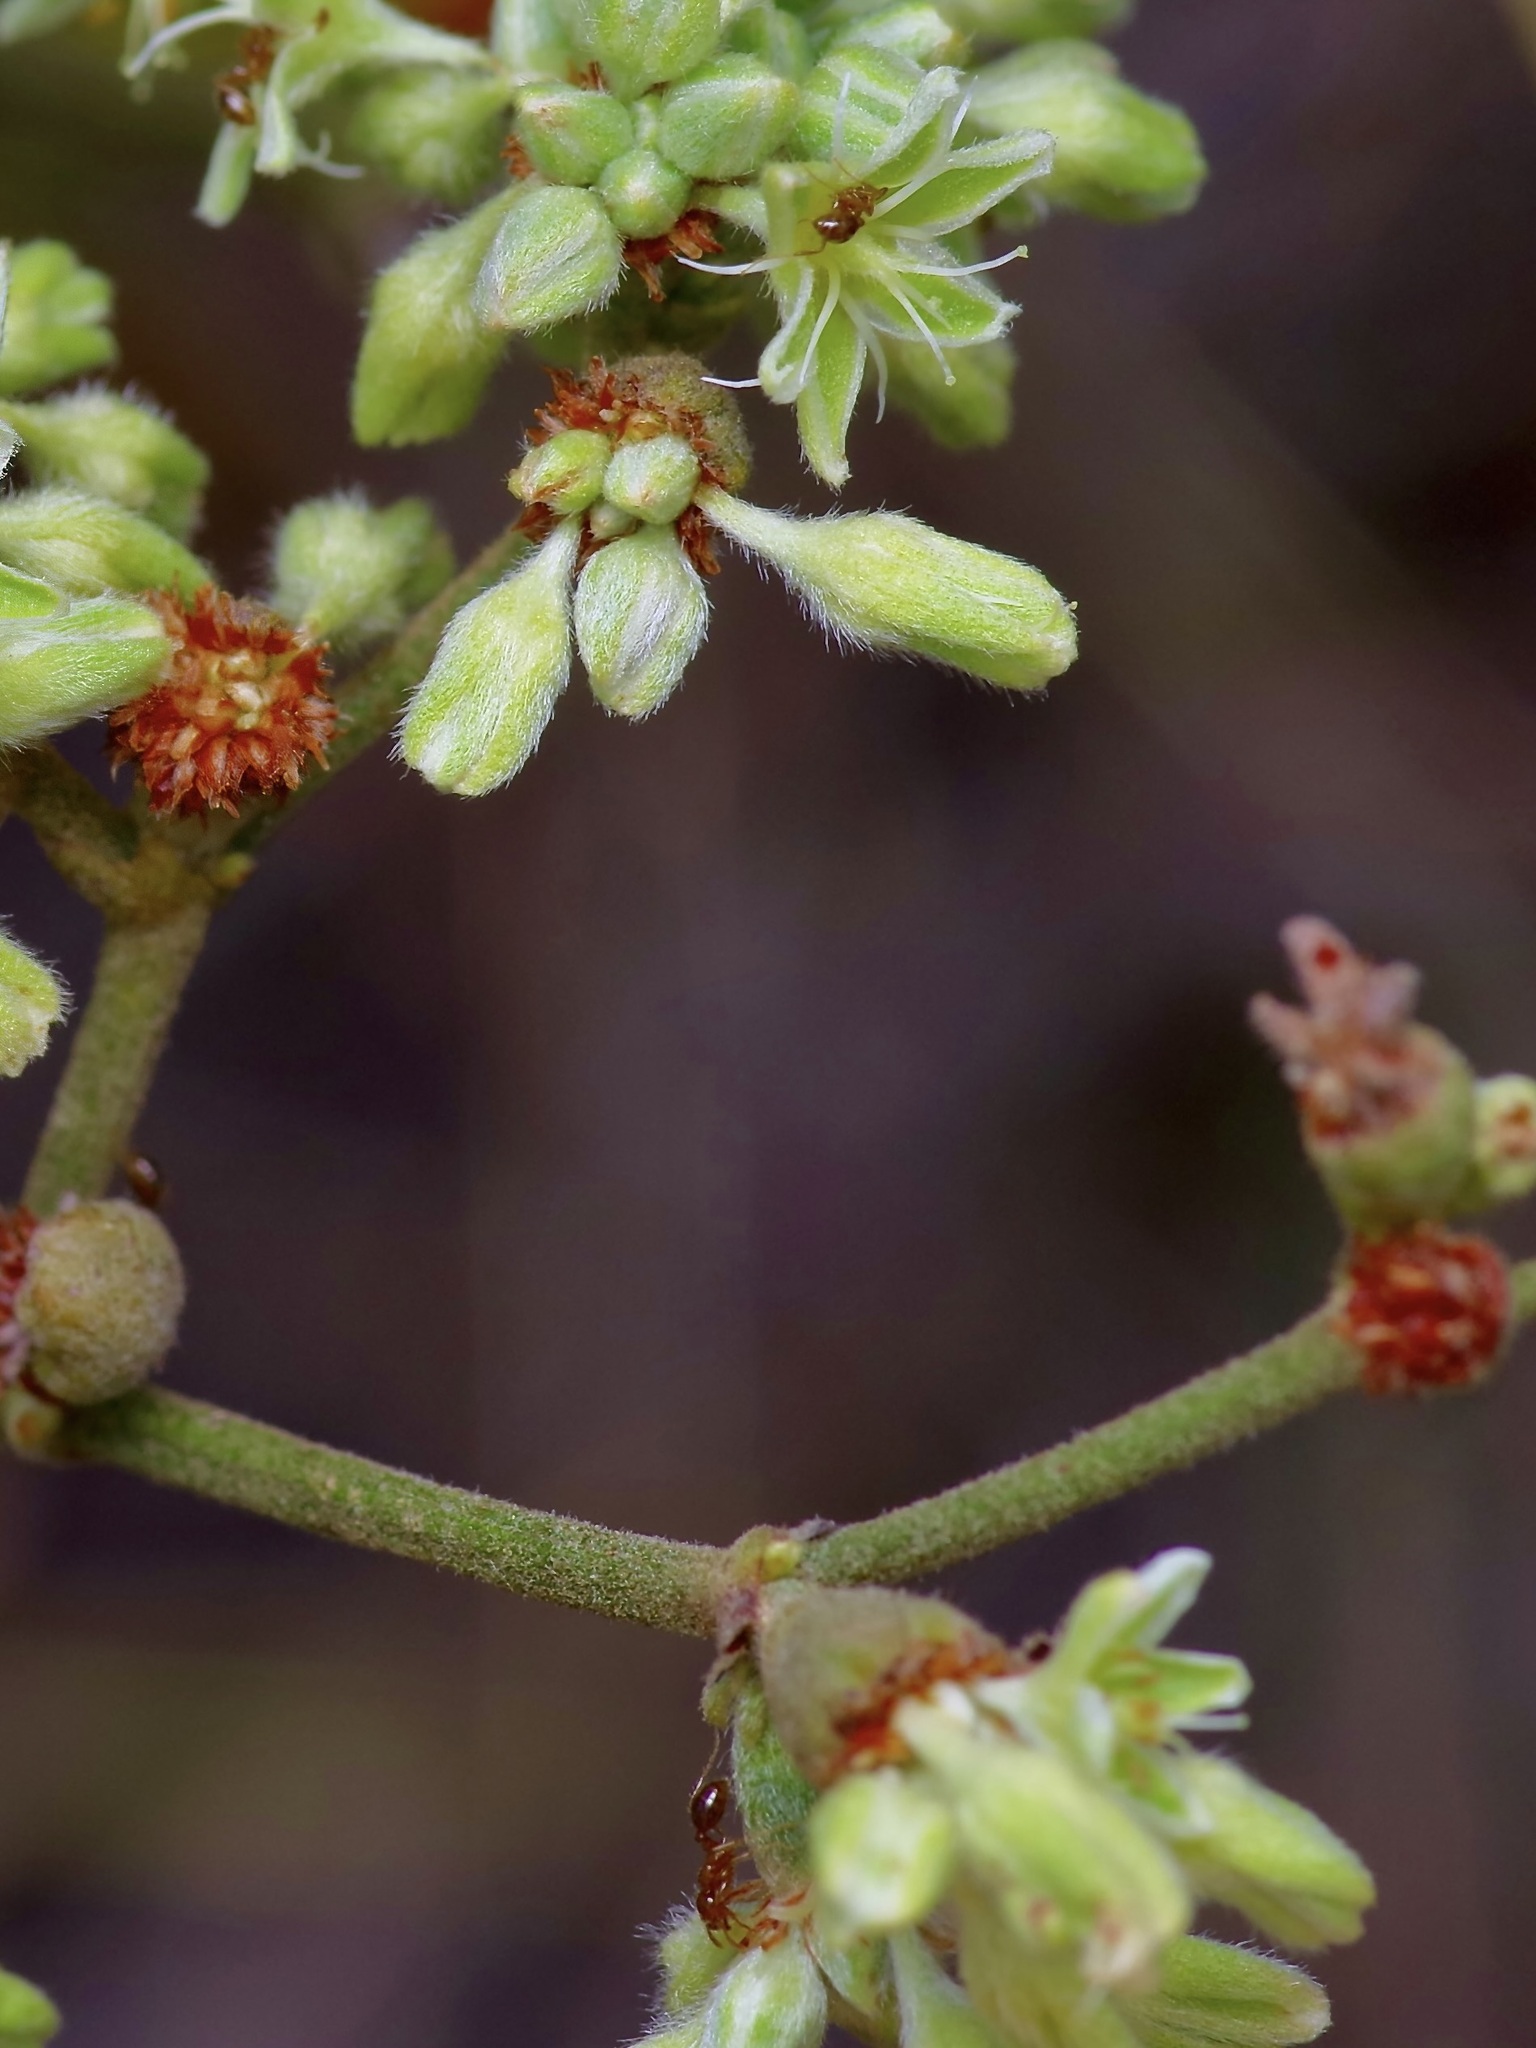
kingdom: Animalia
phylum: Arthropoda
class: Insecta
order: Hymenoptera
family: Formicidae
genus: Solenopsis
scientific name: Solenopsis invicta
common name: Red imported fire ant
